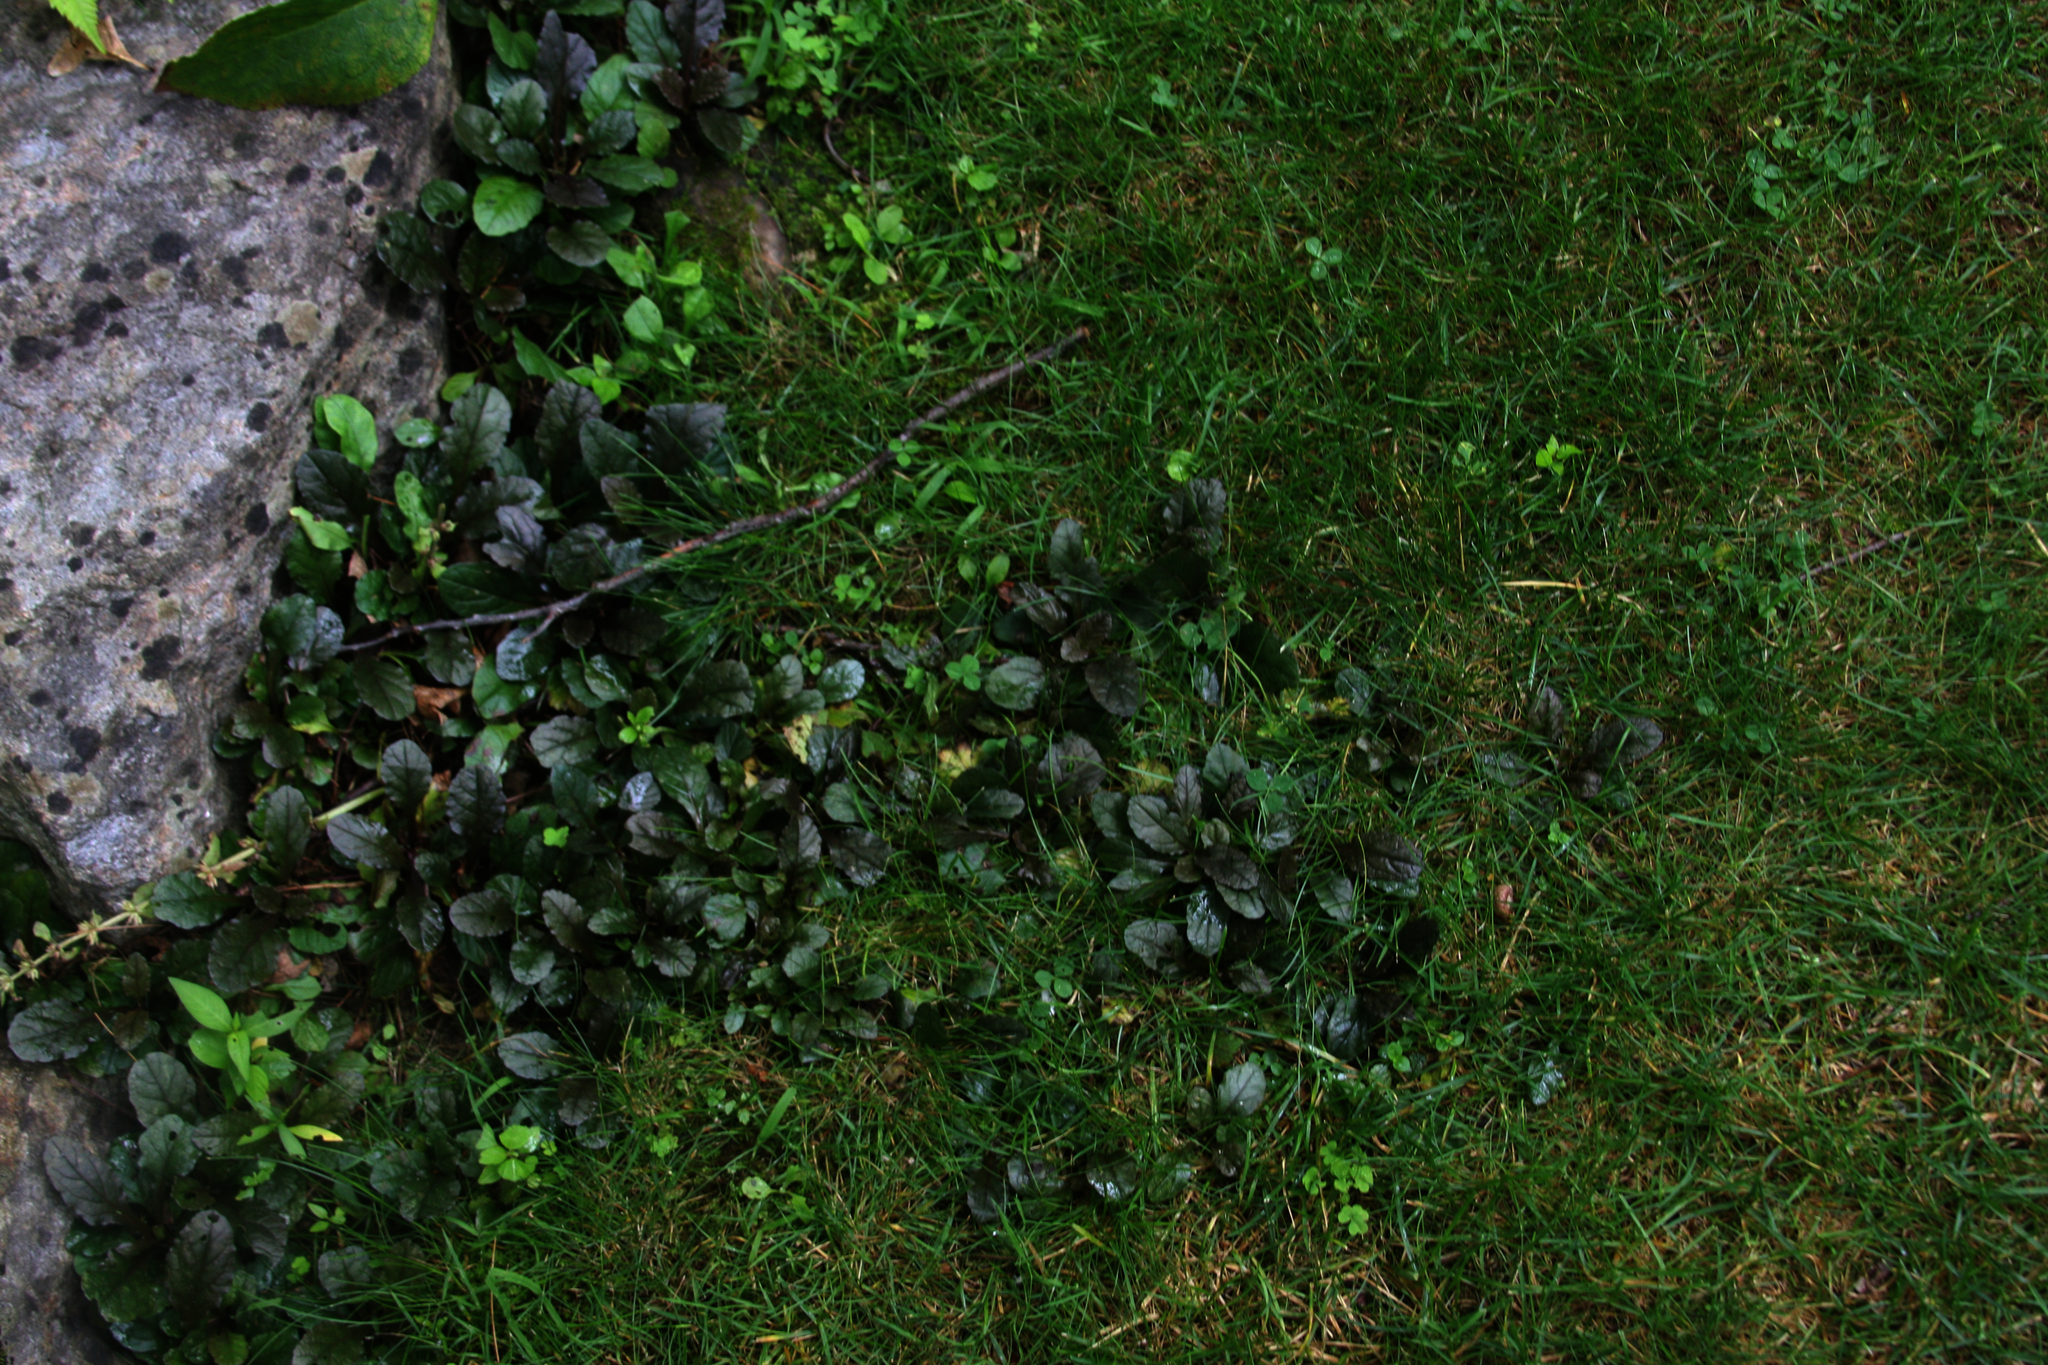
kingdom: Plantae
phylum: Tracheophyta
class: Magnoliopsida
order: Lamiales
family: Lamiaceae
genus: Ajuga
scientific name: Ajuga reptans
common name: Bugle
